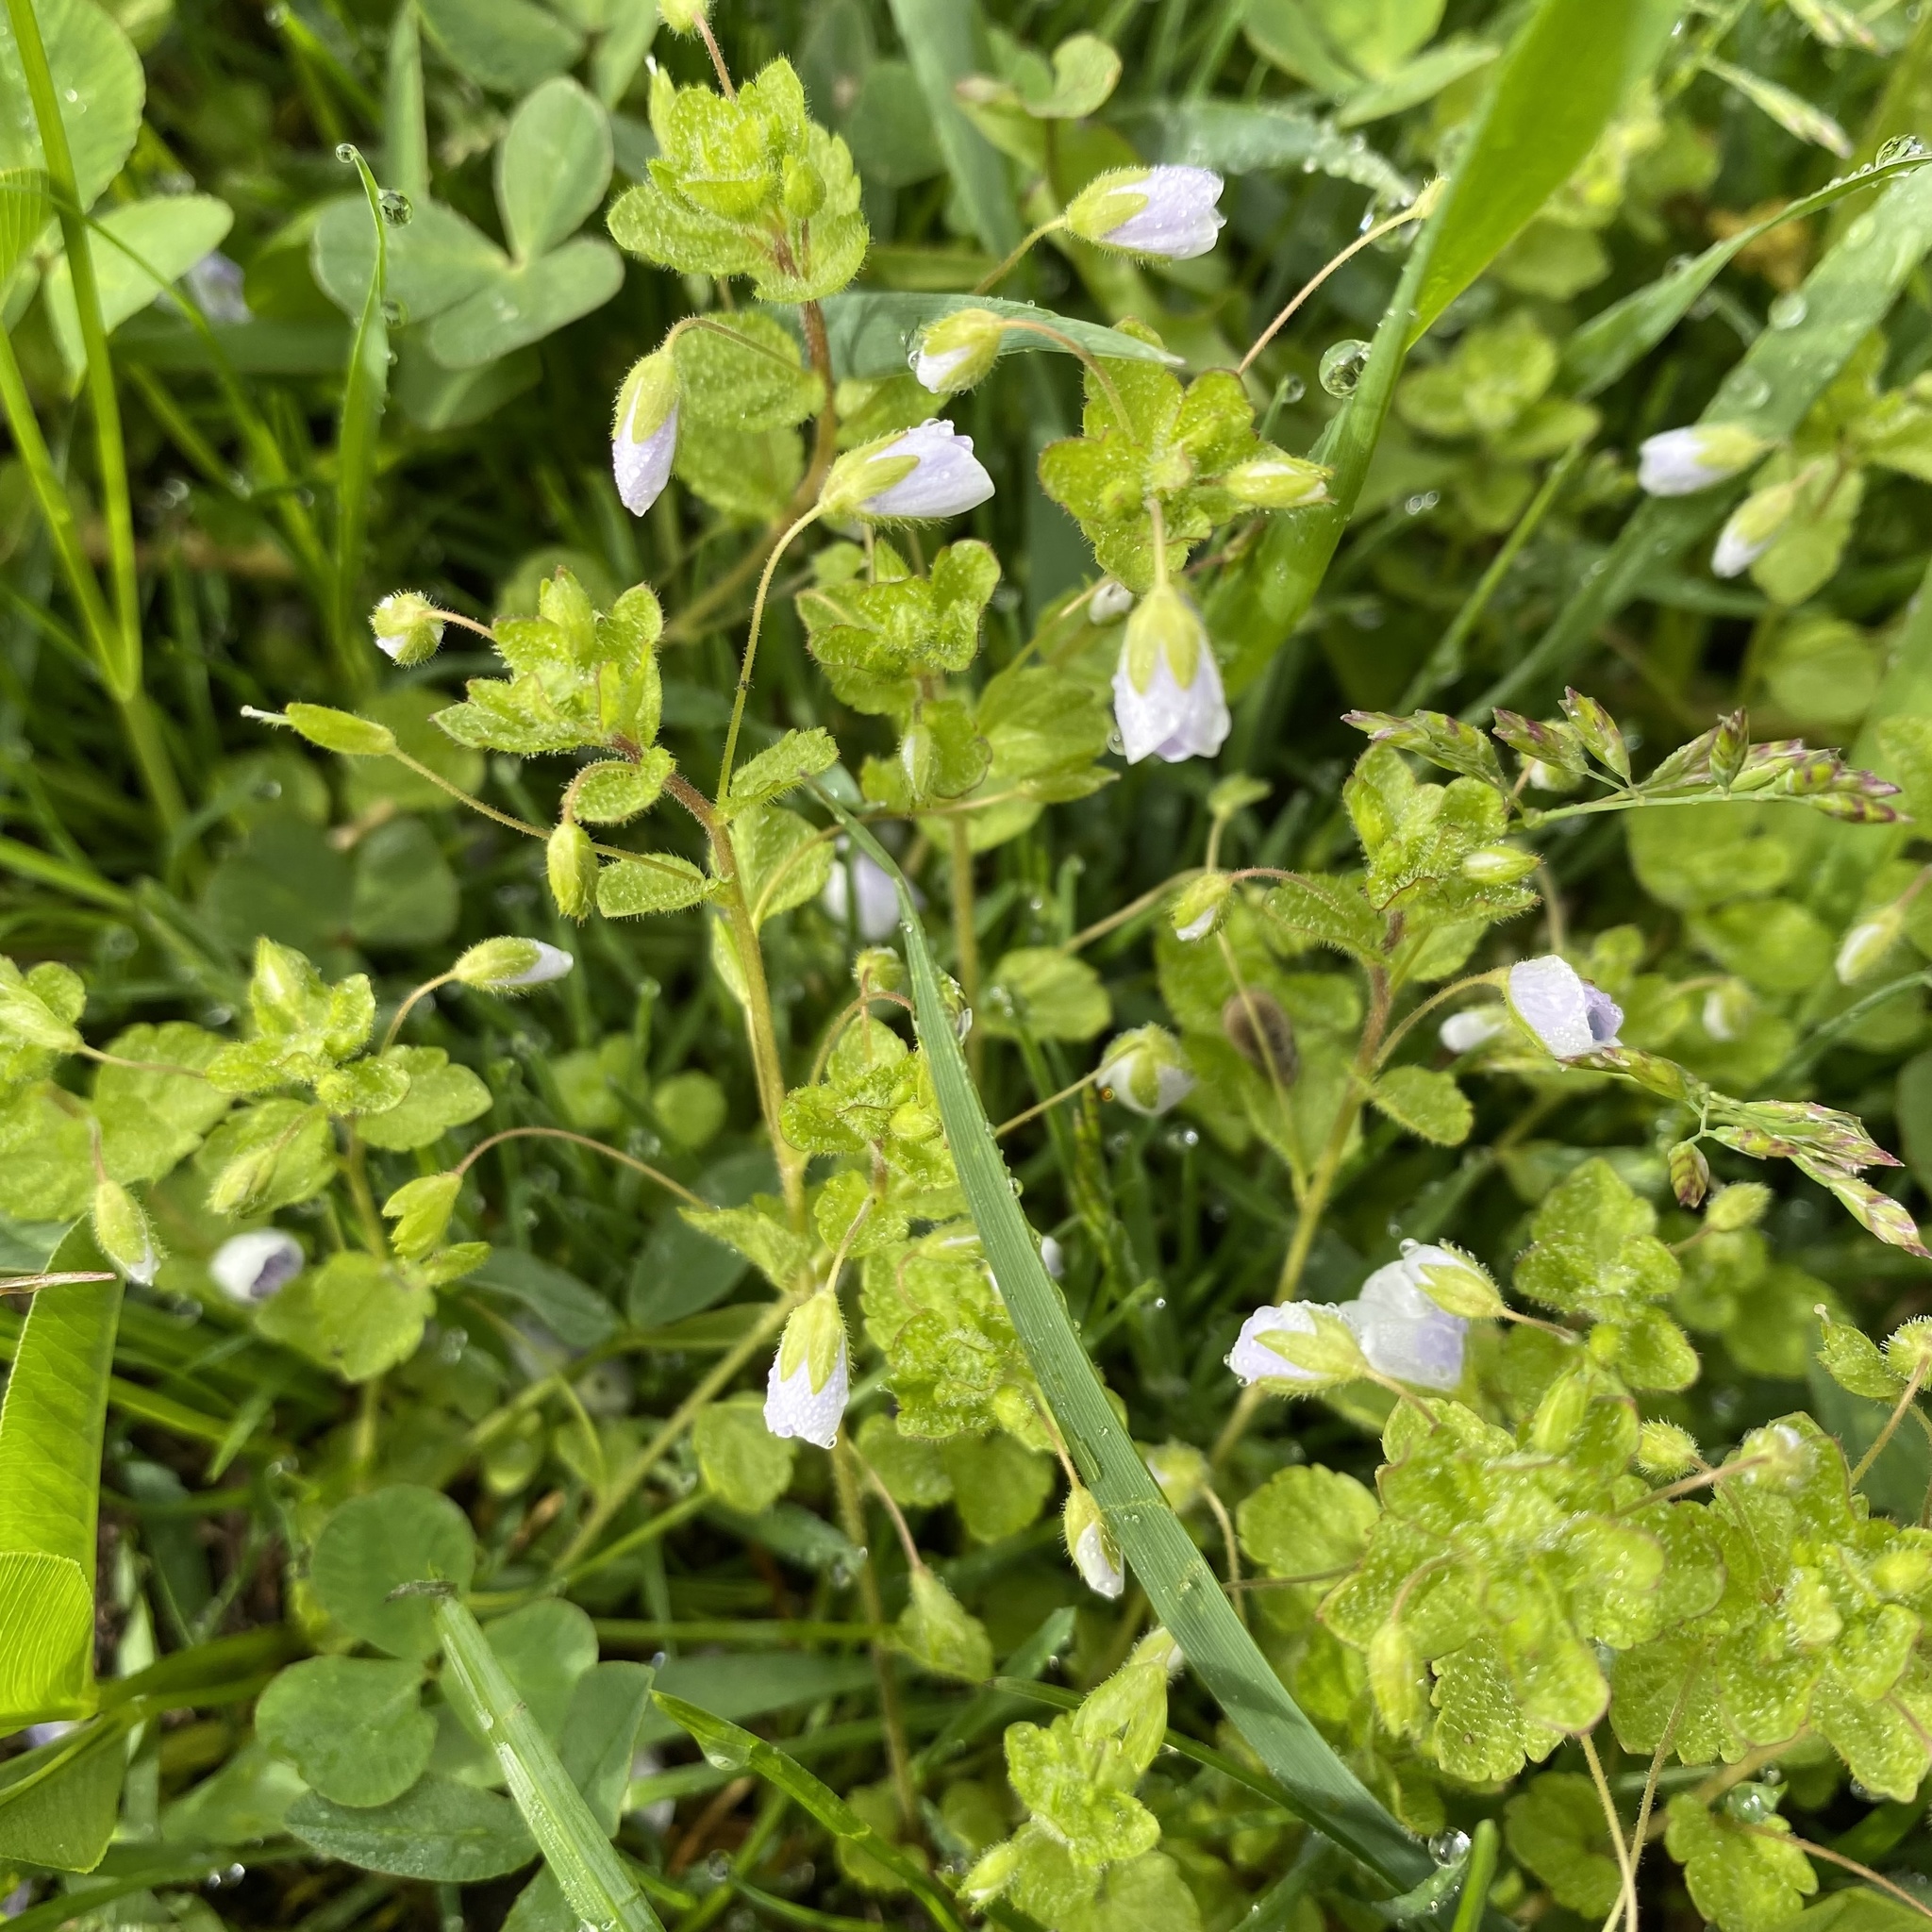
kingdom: Plantae
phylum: Tracheophyta
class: Magnoliopsida
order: Lamiales
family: Plantaginaceae
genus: Veronica
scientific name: Veronica filiformis
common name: Slender speedwell
